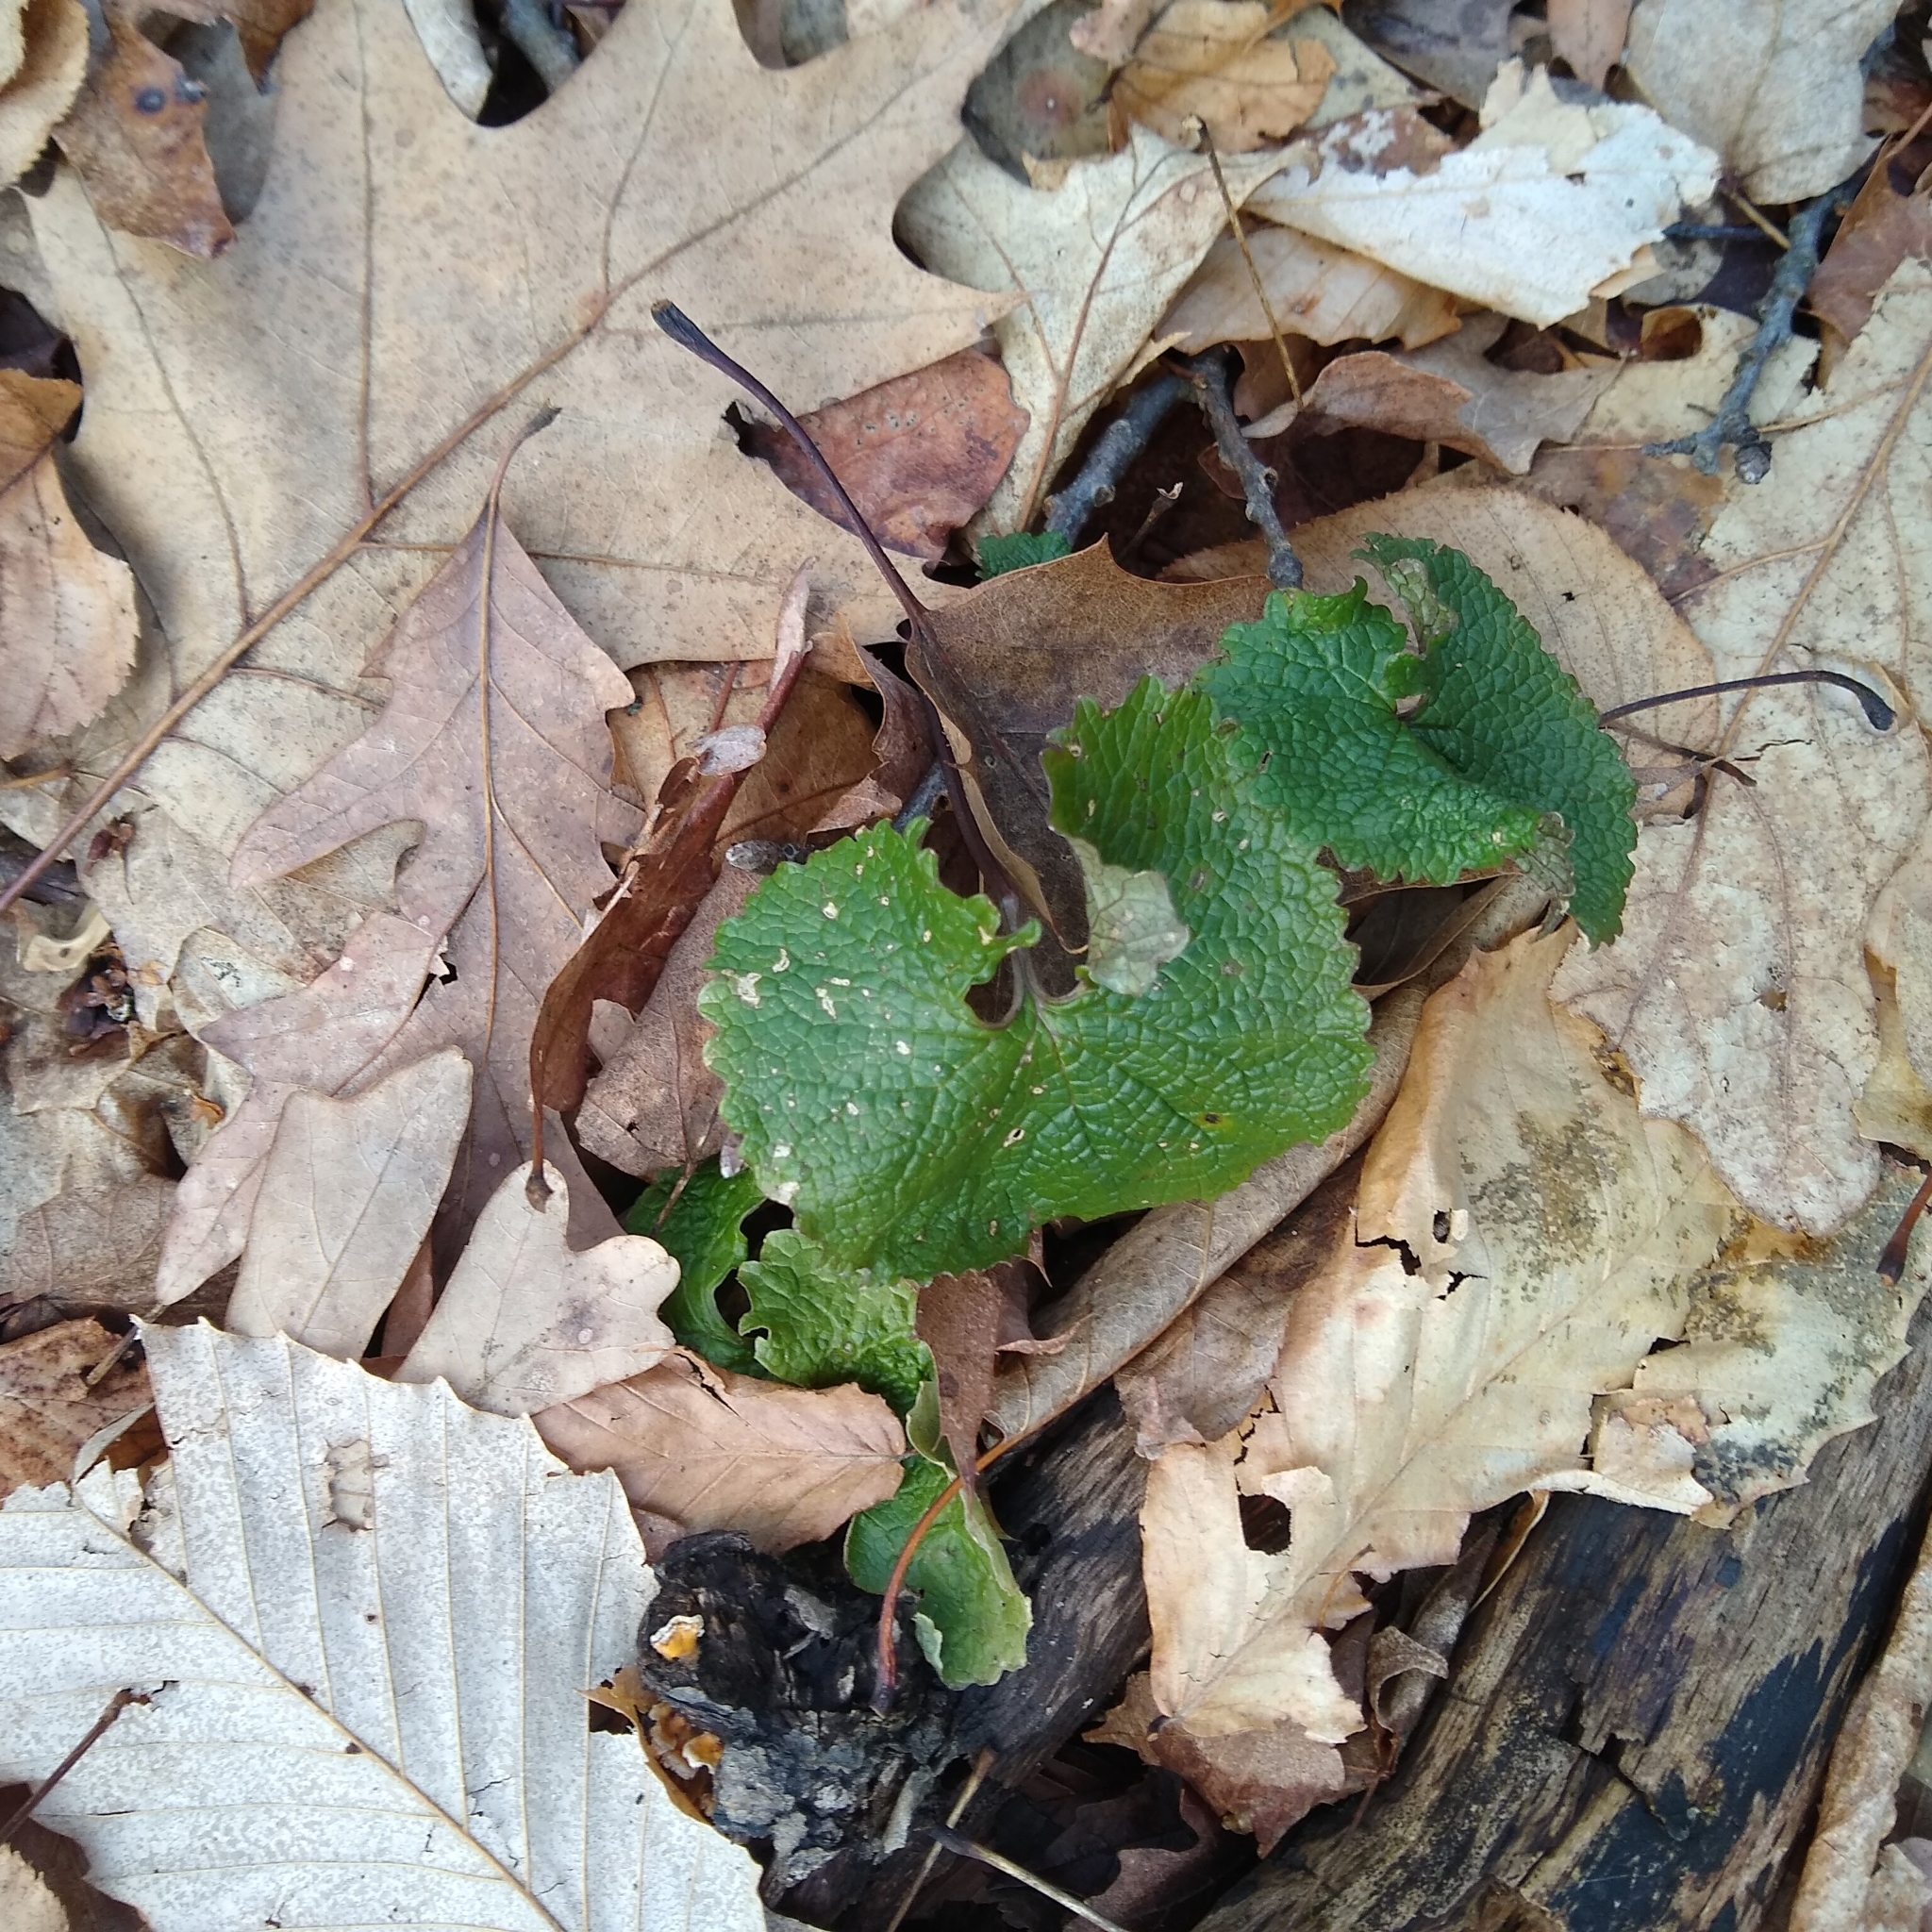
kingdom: Plantae
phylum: Tracheophyta
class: Magnoliopsida
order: Brassicales
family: Brassicaceae
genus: Alliaria
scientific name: Alliaria petiolata
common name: Garlic mustard
